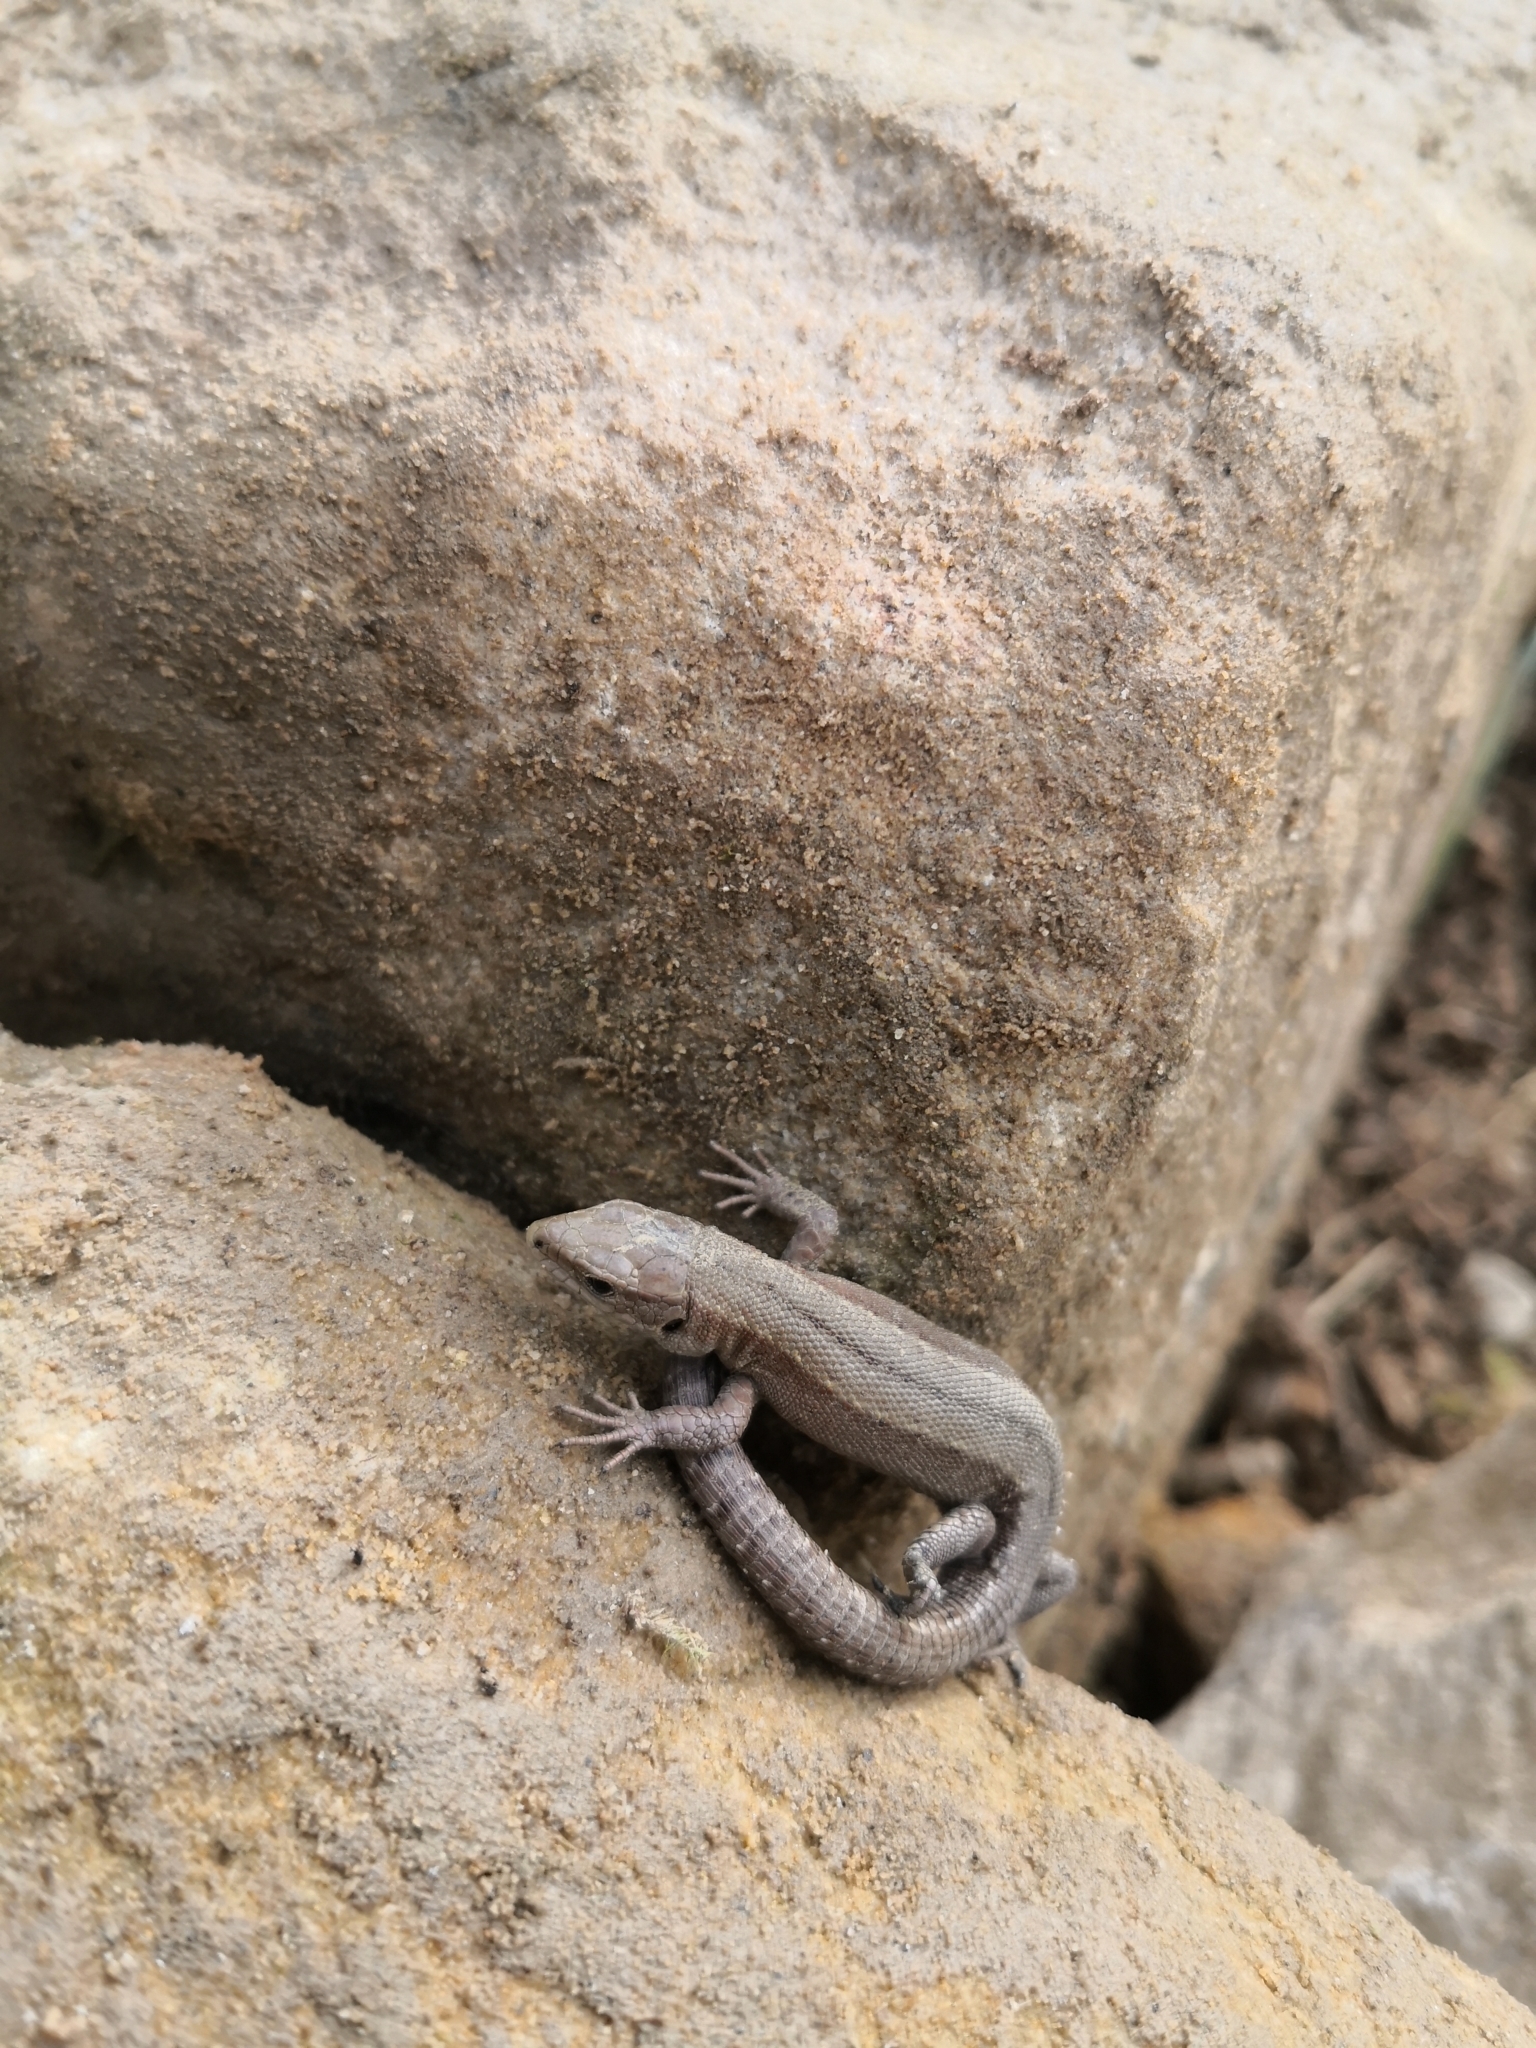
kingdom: Animalia
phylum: Chordata
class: Squamata
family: Lacertidae
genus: Zootoca
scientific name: Zootoca vivipara
